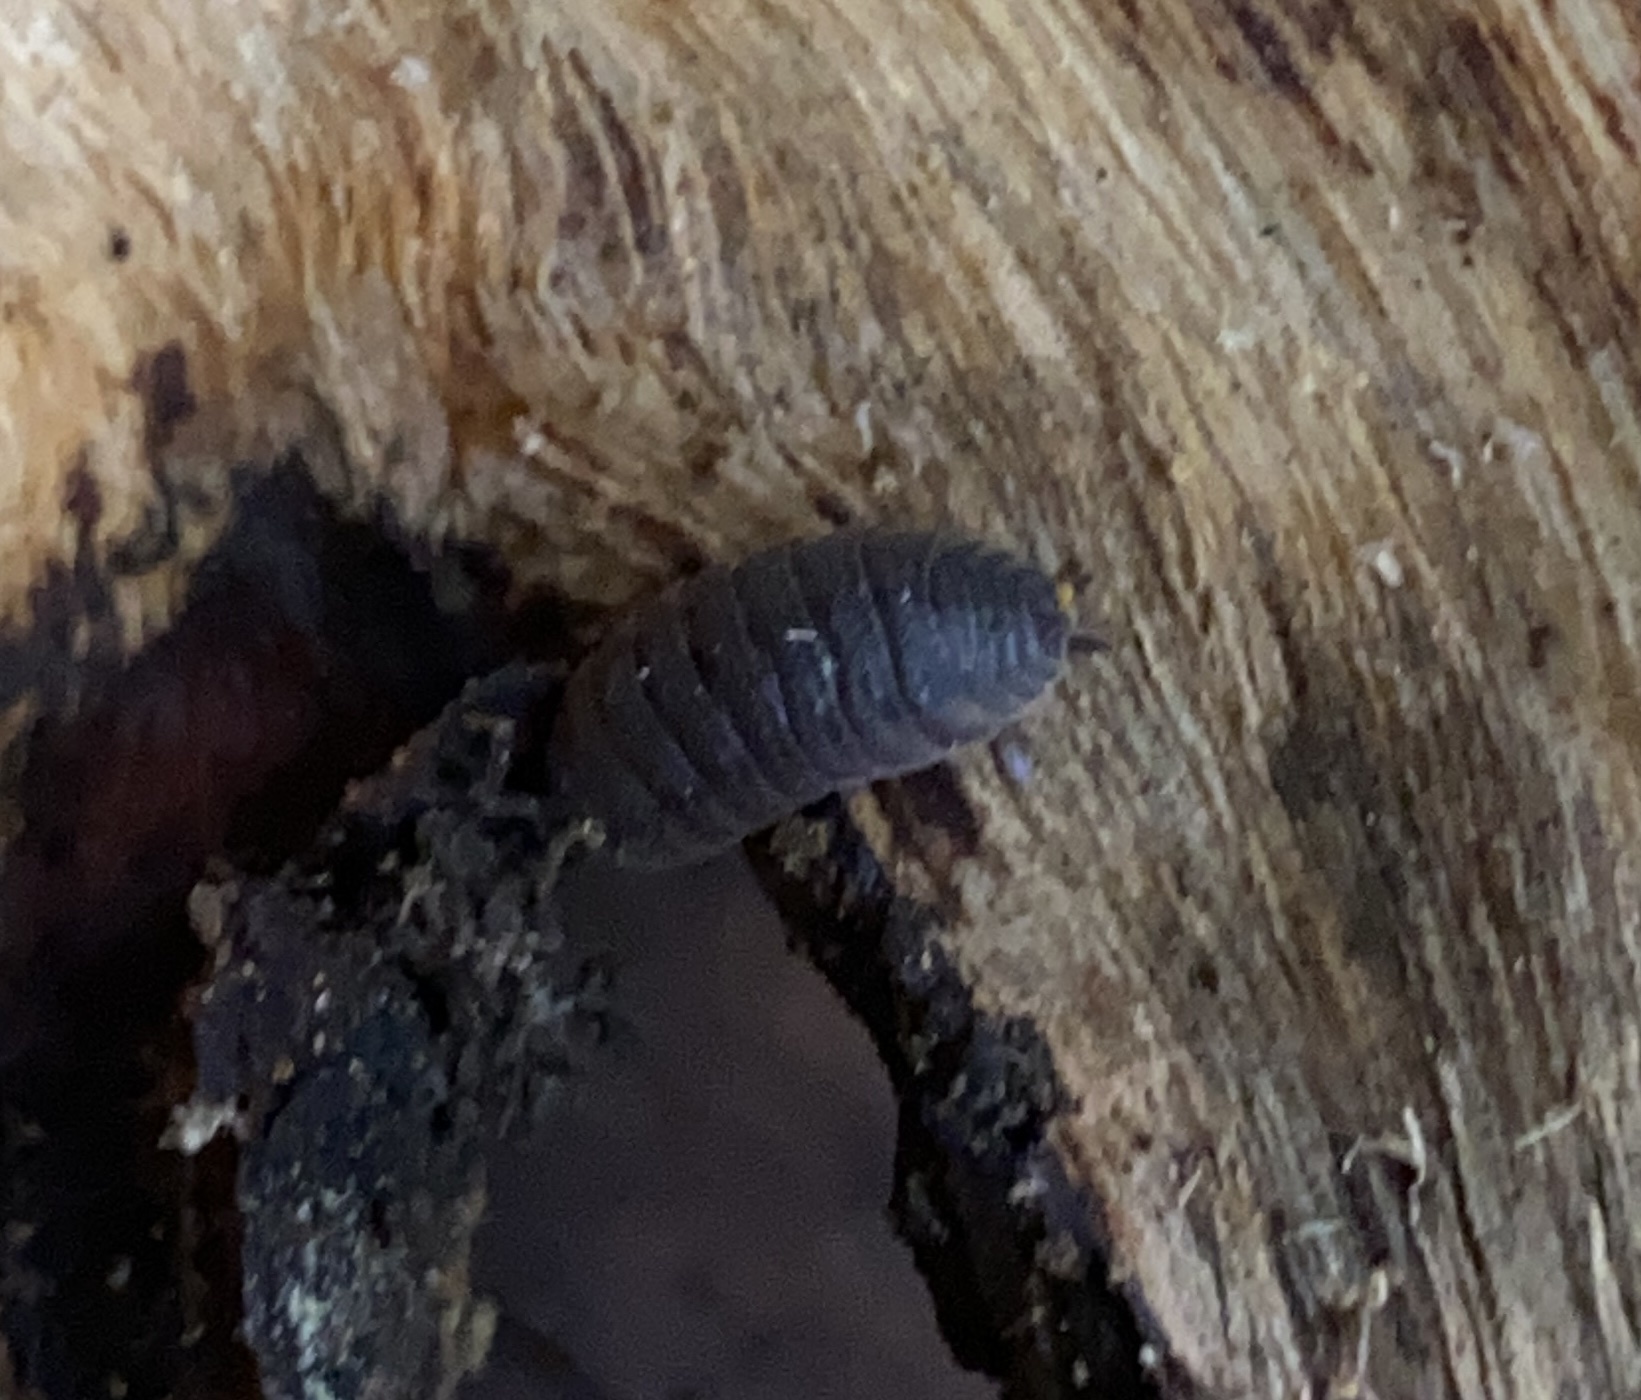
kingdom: Animalia
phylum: Arthropoda
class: Malacostraca
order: Isopoda
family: Porcellionidae
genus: Porcellio
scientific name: Porcellio scaber
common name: Common rough woodlouse
